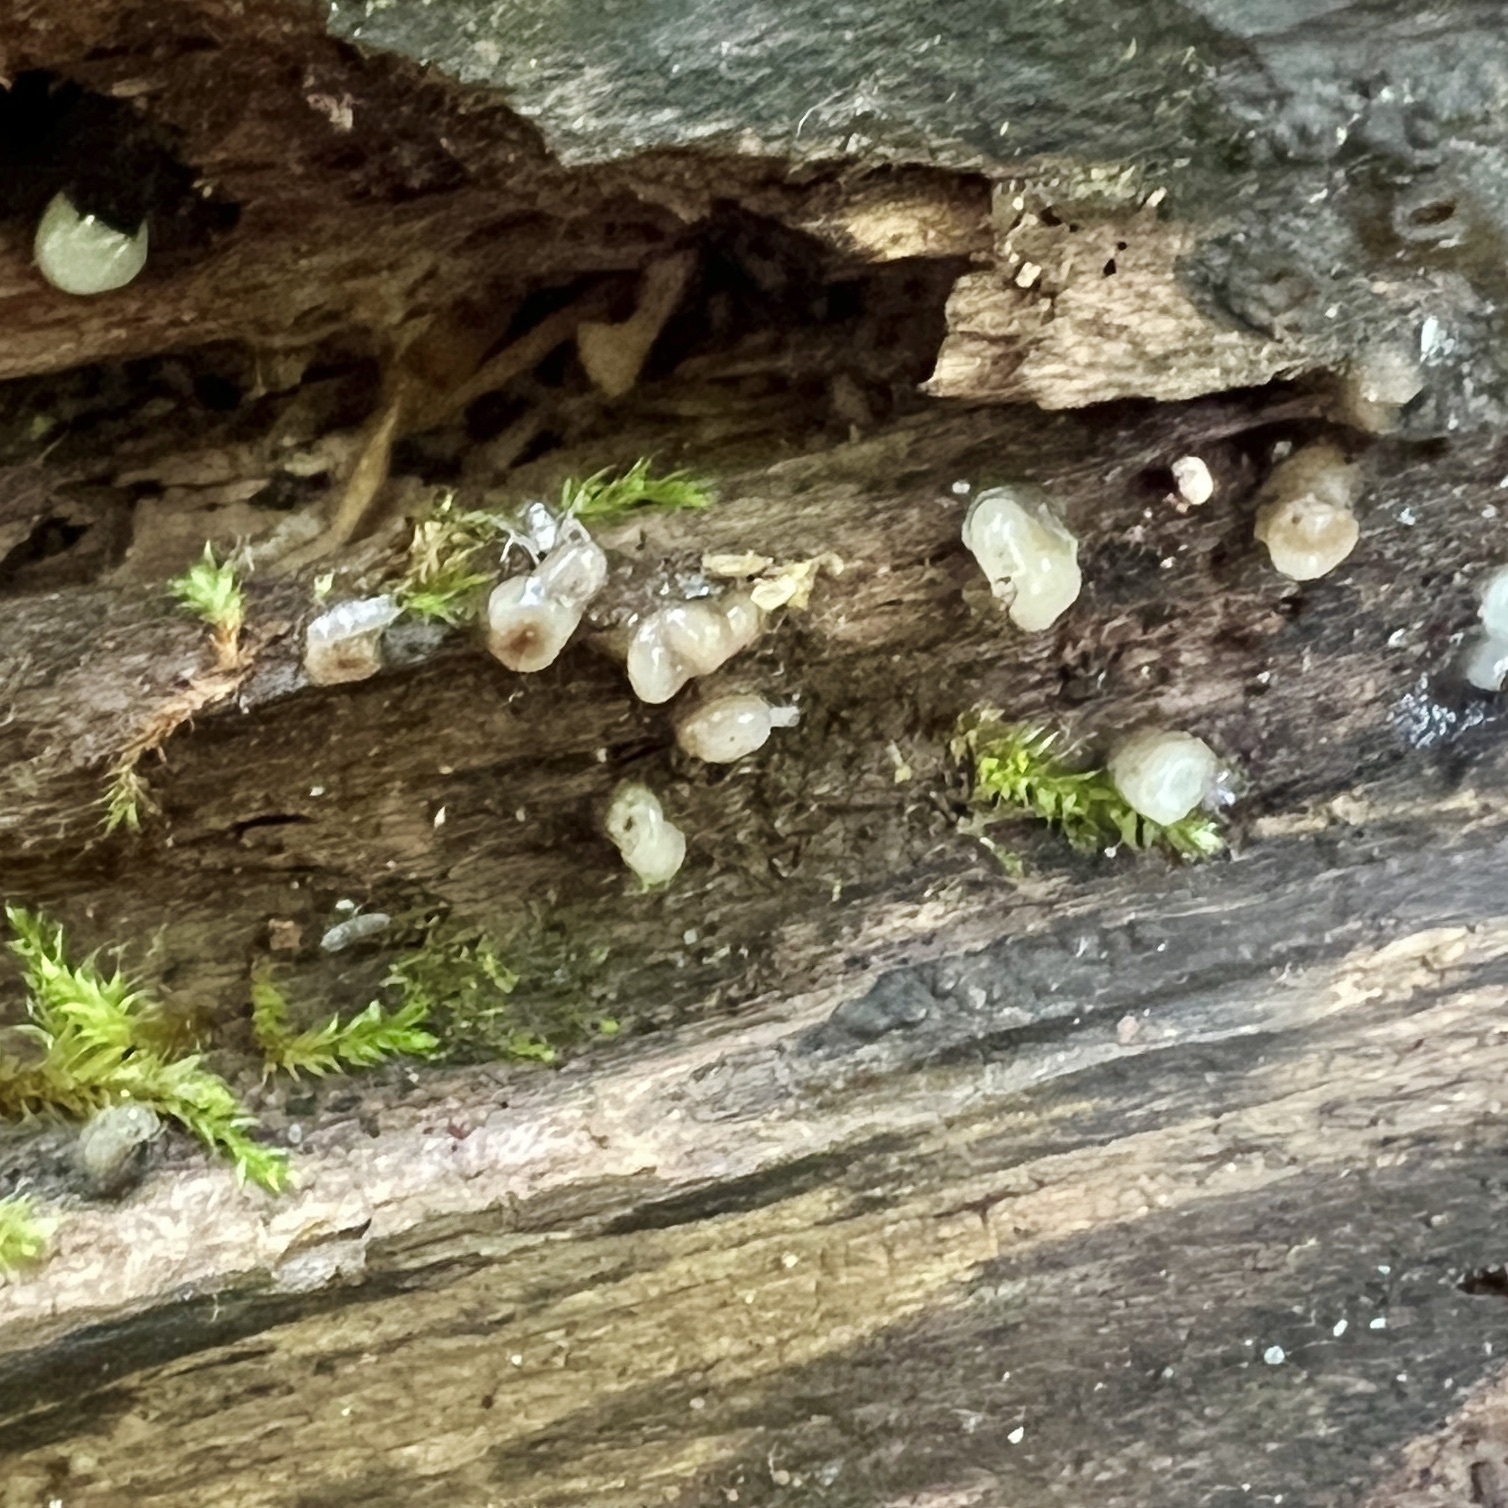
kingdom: Fungi
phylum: Basidiomycota
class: Atractiellomycetes
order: Atractiellales
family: Phleogenaceae
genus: Helicogloea
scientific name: Helicogloea compressa
